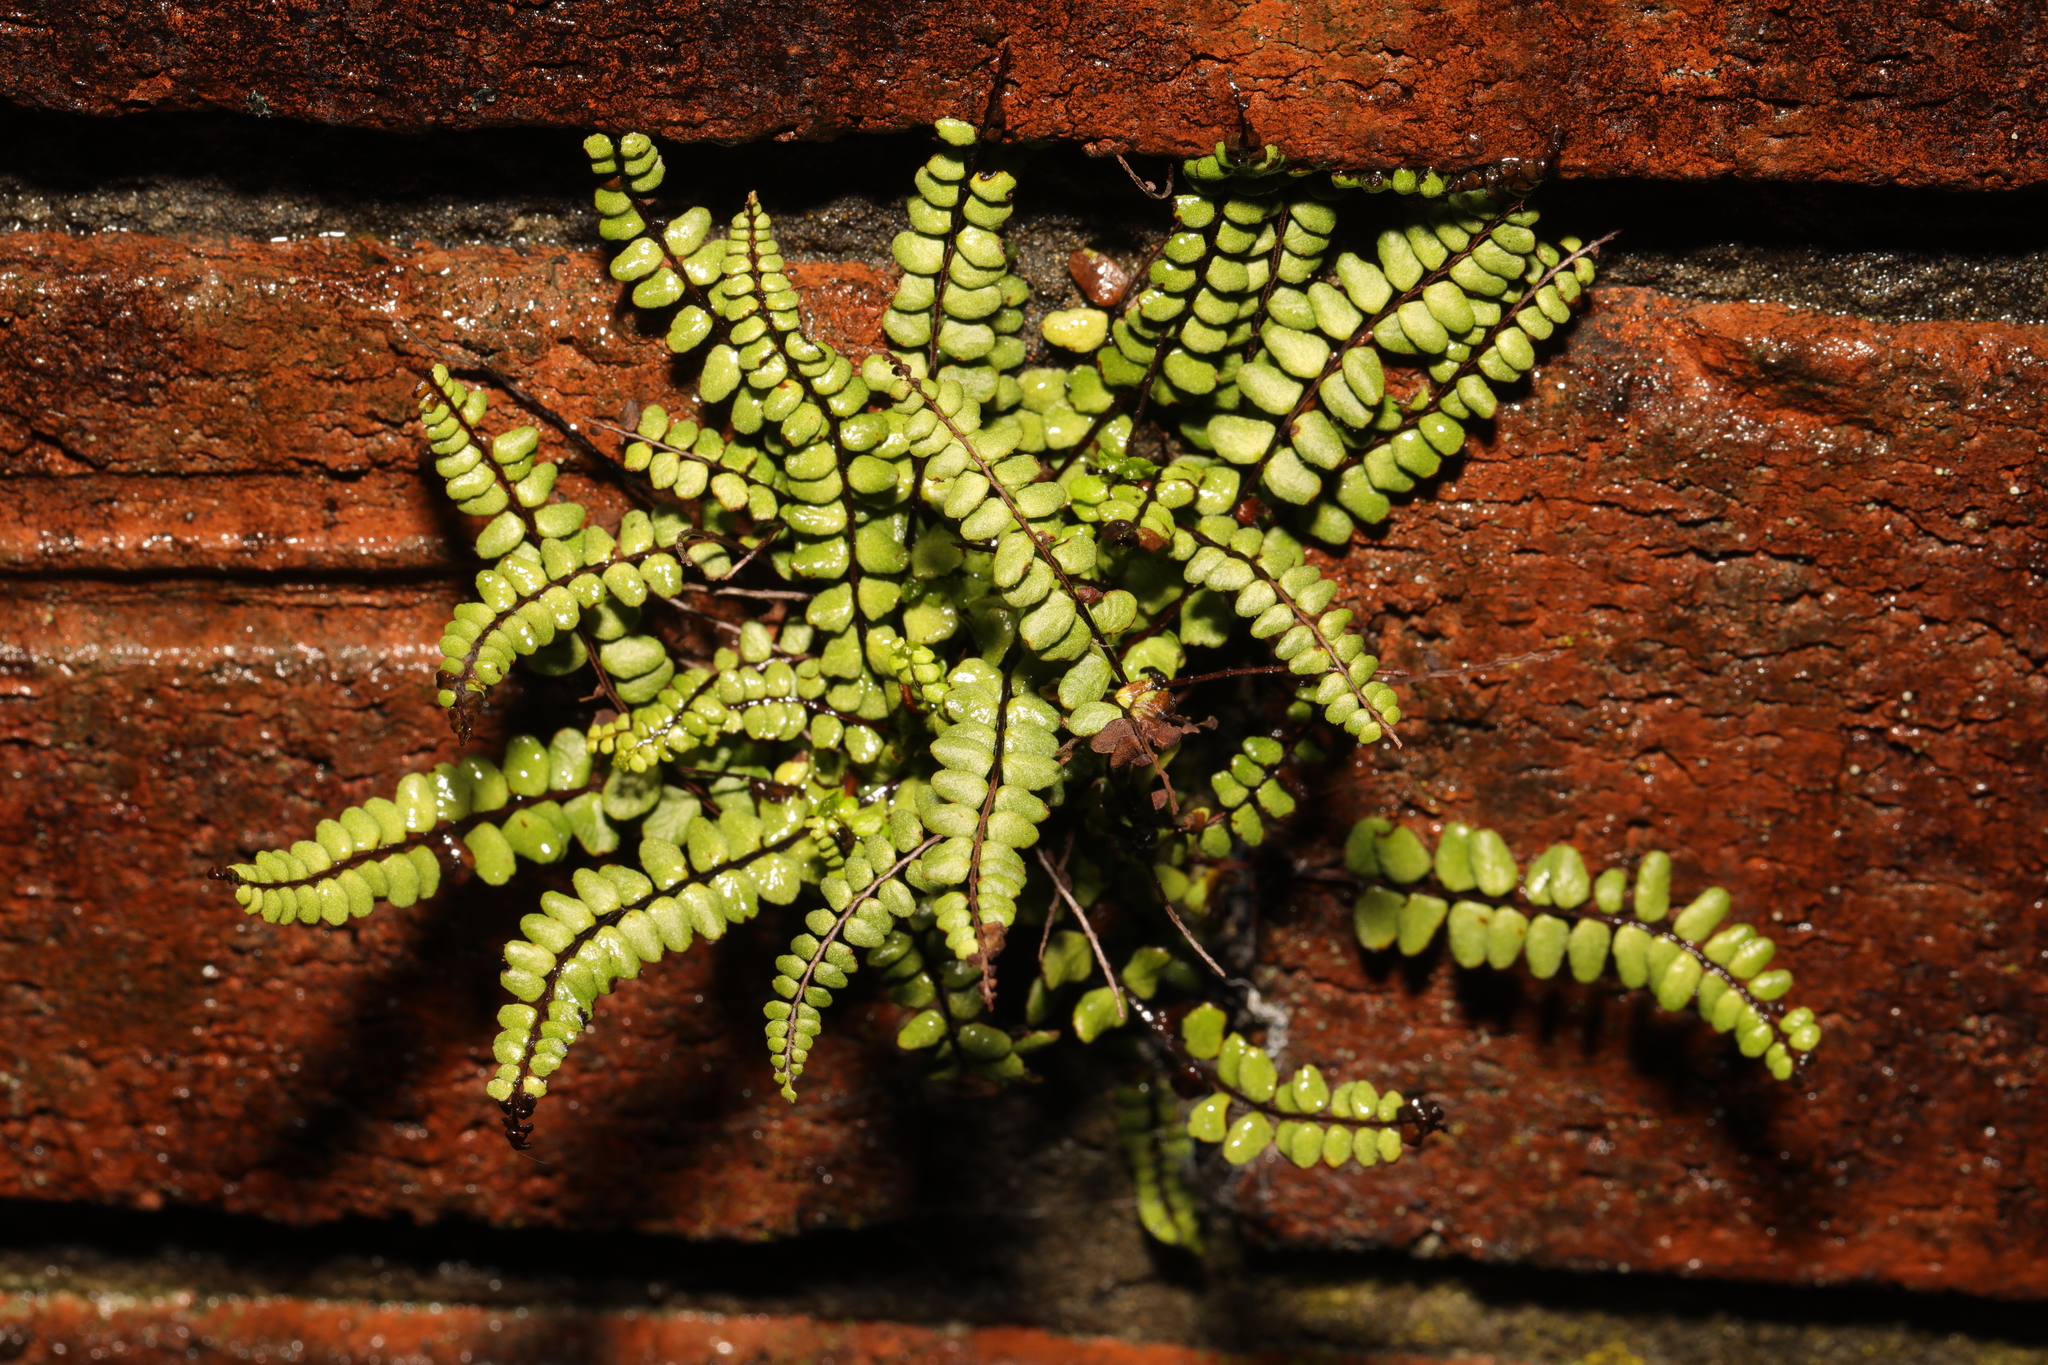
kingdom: Plantae
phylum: Tracheophyta
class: Polypodiopsida
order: Polypodiales
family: Aspleniaceae
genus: Asplenium
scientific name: Asplenium trichomanes
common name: Maidenhair spleenwort
